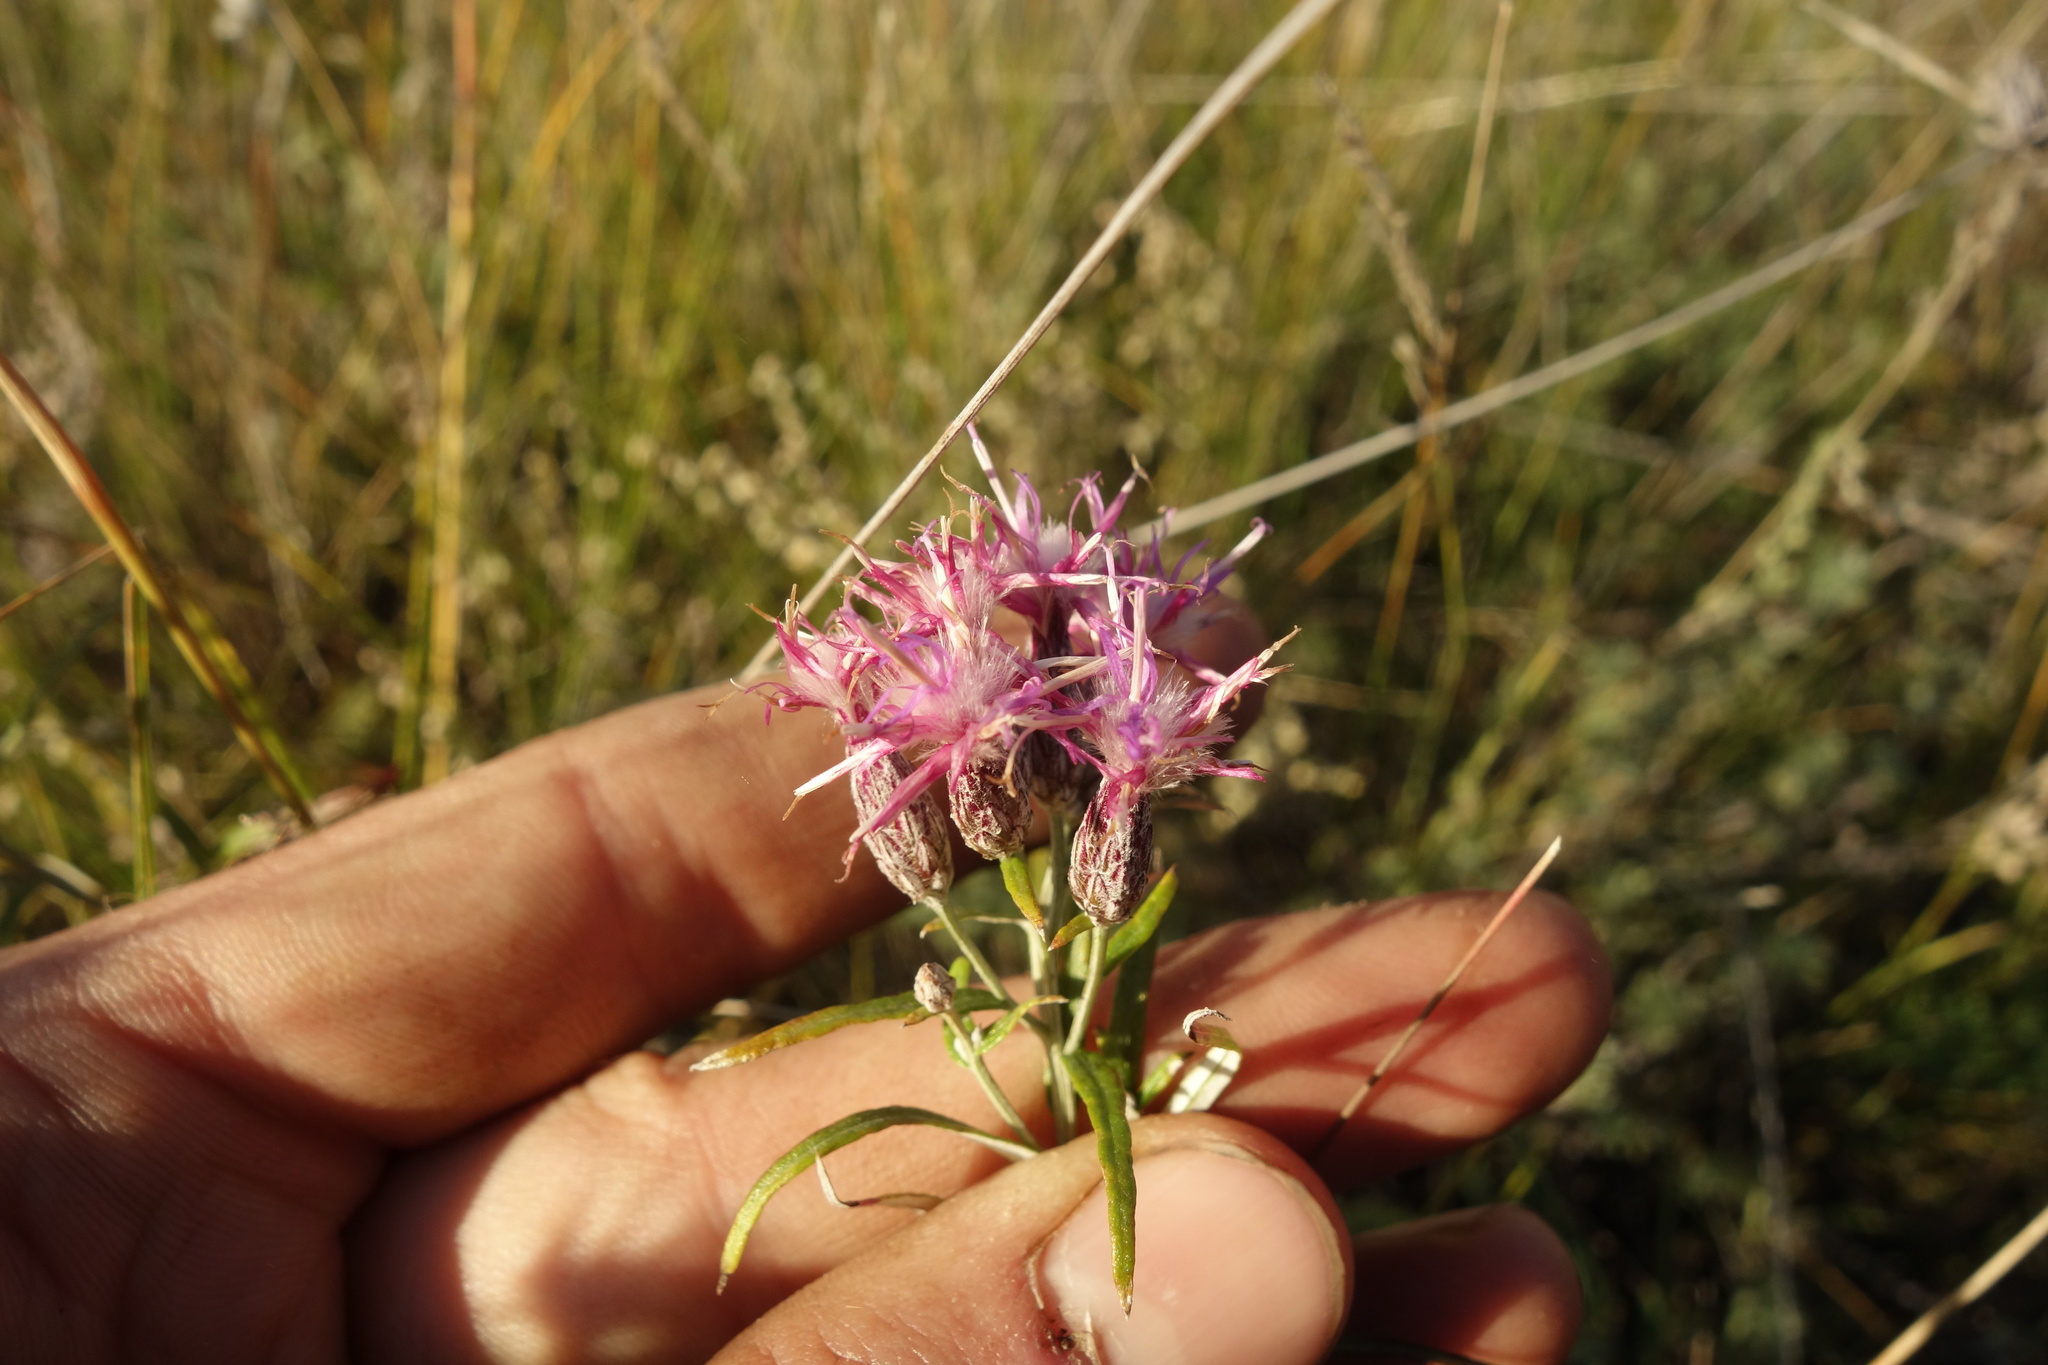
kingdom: Plantae
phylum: Tracheophyta
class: Magnoliopsida
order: Asterales
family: Asteraceae
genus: Saussurea
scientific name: Saussurea salicifolia
